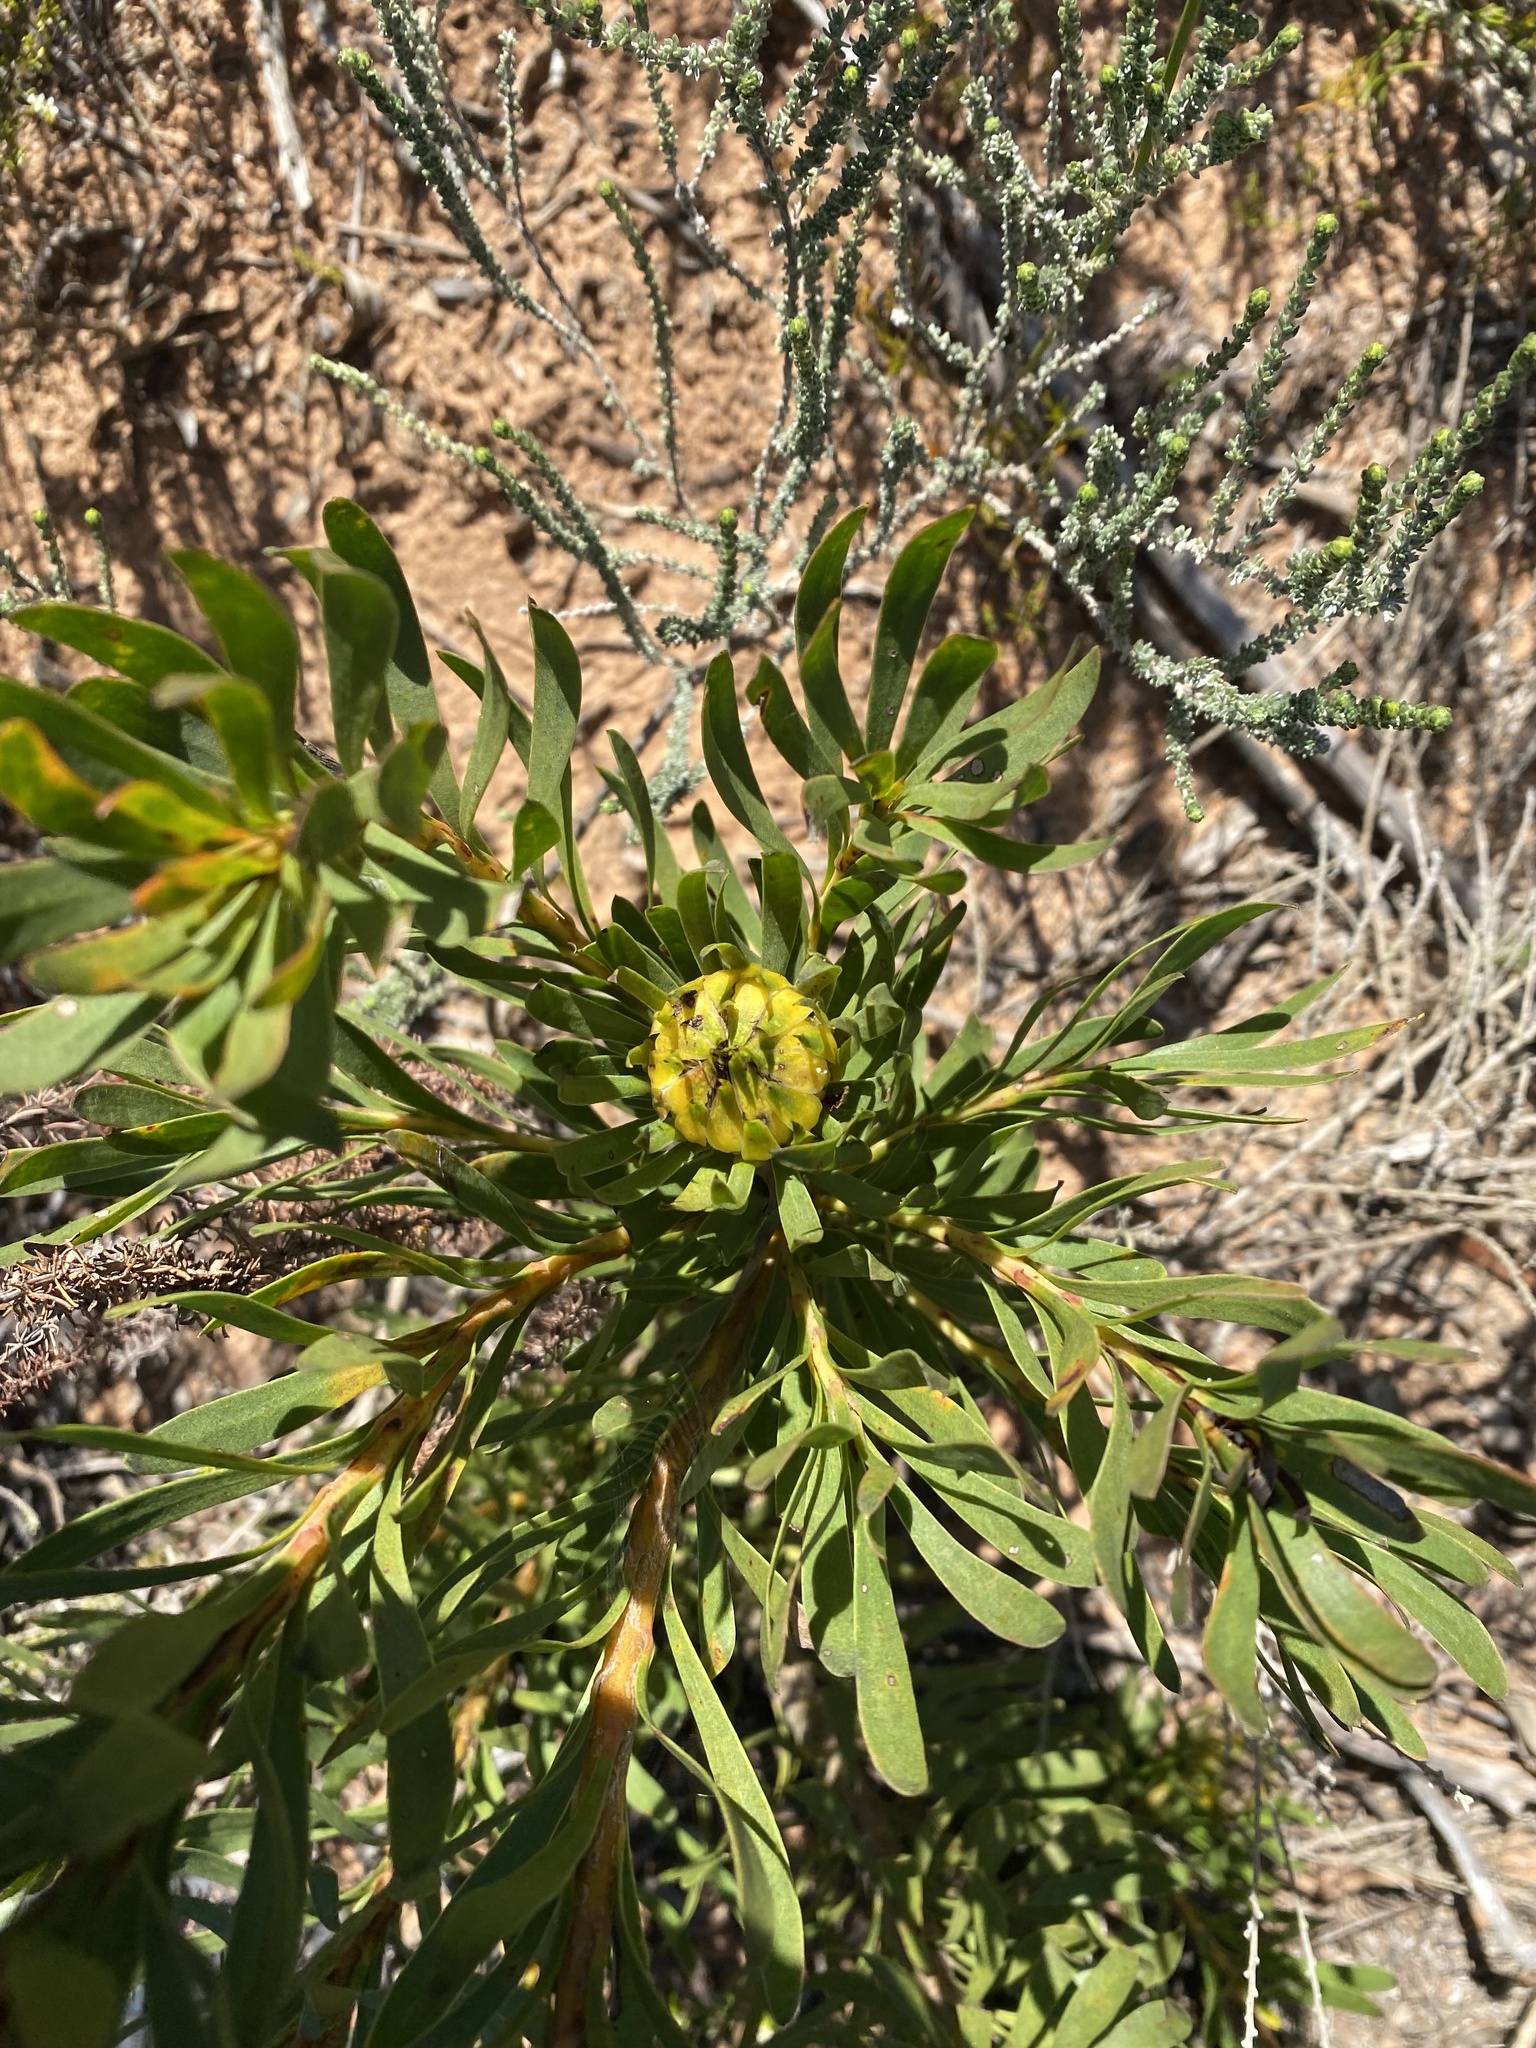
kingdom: Plantae
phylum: Tracheophyta
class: Magnoliopsida
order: Proteales
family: Proteaceae
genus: Aulax
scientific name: Aulax umbellata
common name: Broad-leaf featherbush
